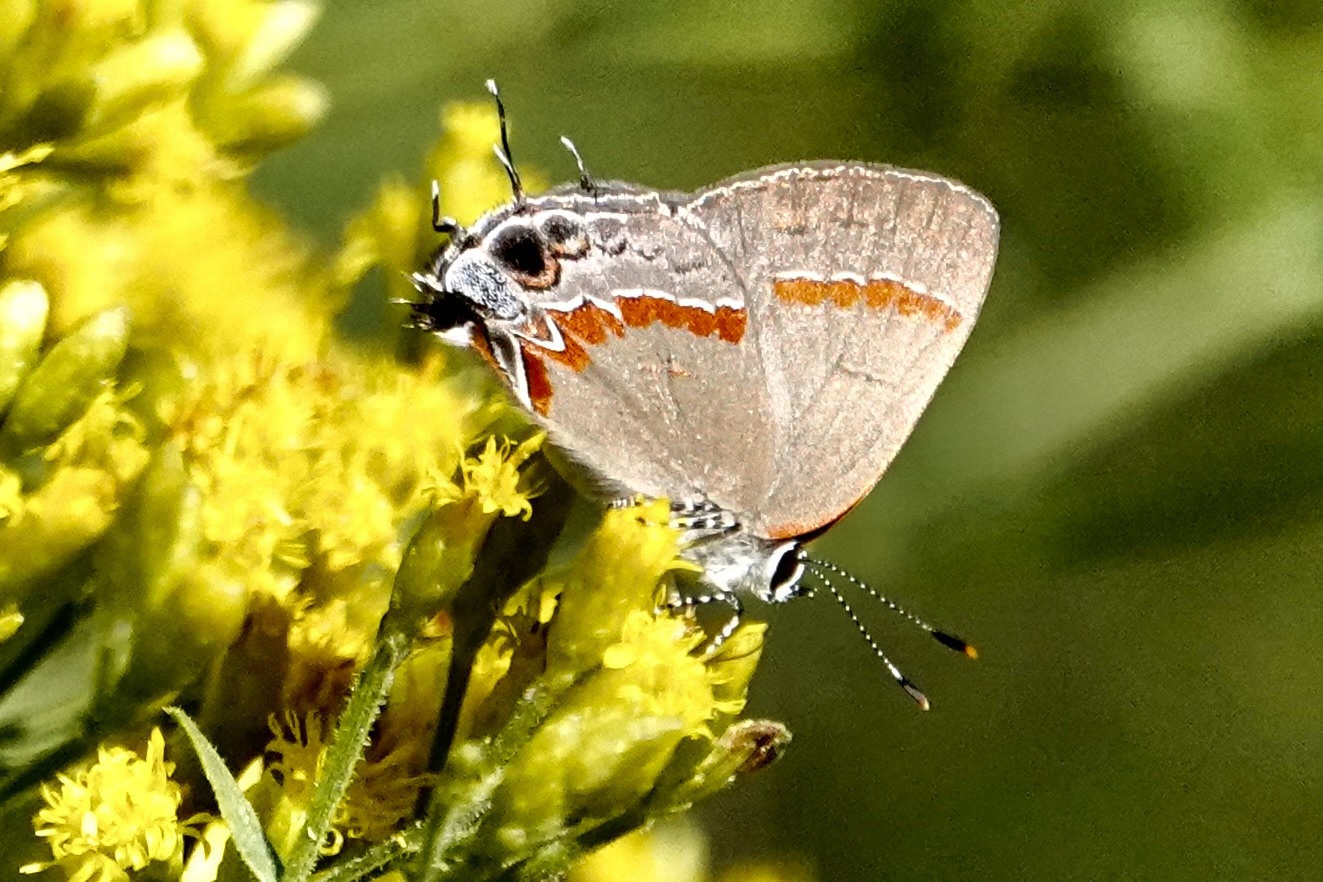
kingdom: Animalia
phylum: Arthropoda
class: Insecta
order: Lepidoptera
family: Lycaenidae
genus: Calycopis
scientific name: Calycopis cecrops
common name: Red-banded hairstreak
